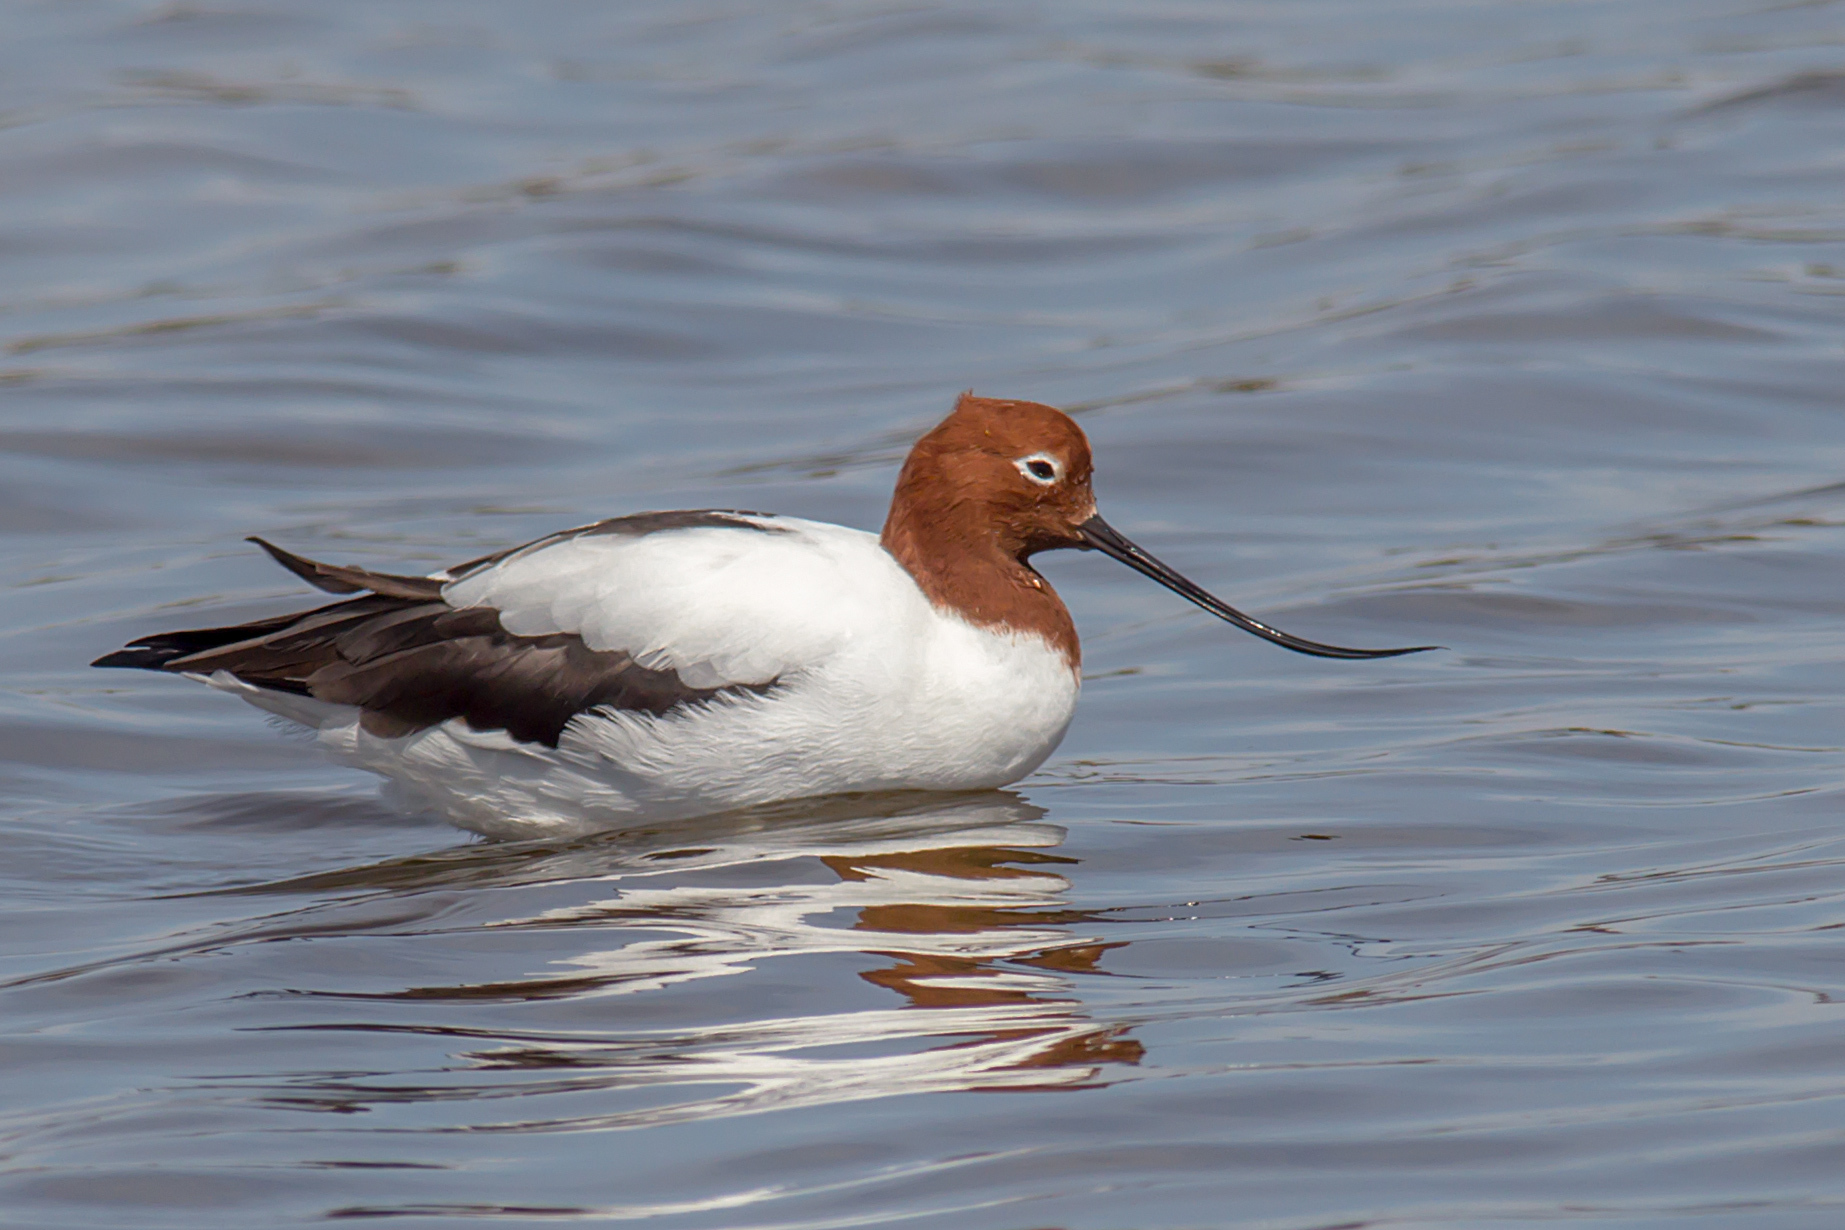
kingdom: Animalia
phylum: Chordata
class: Aves
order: Charadriiformes
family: Recurvirostridae
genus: Recurvirostra
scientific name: Recurvirostra novaehollandiae
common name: Red-necked avocet
